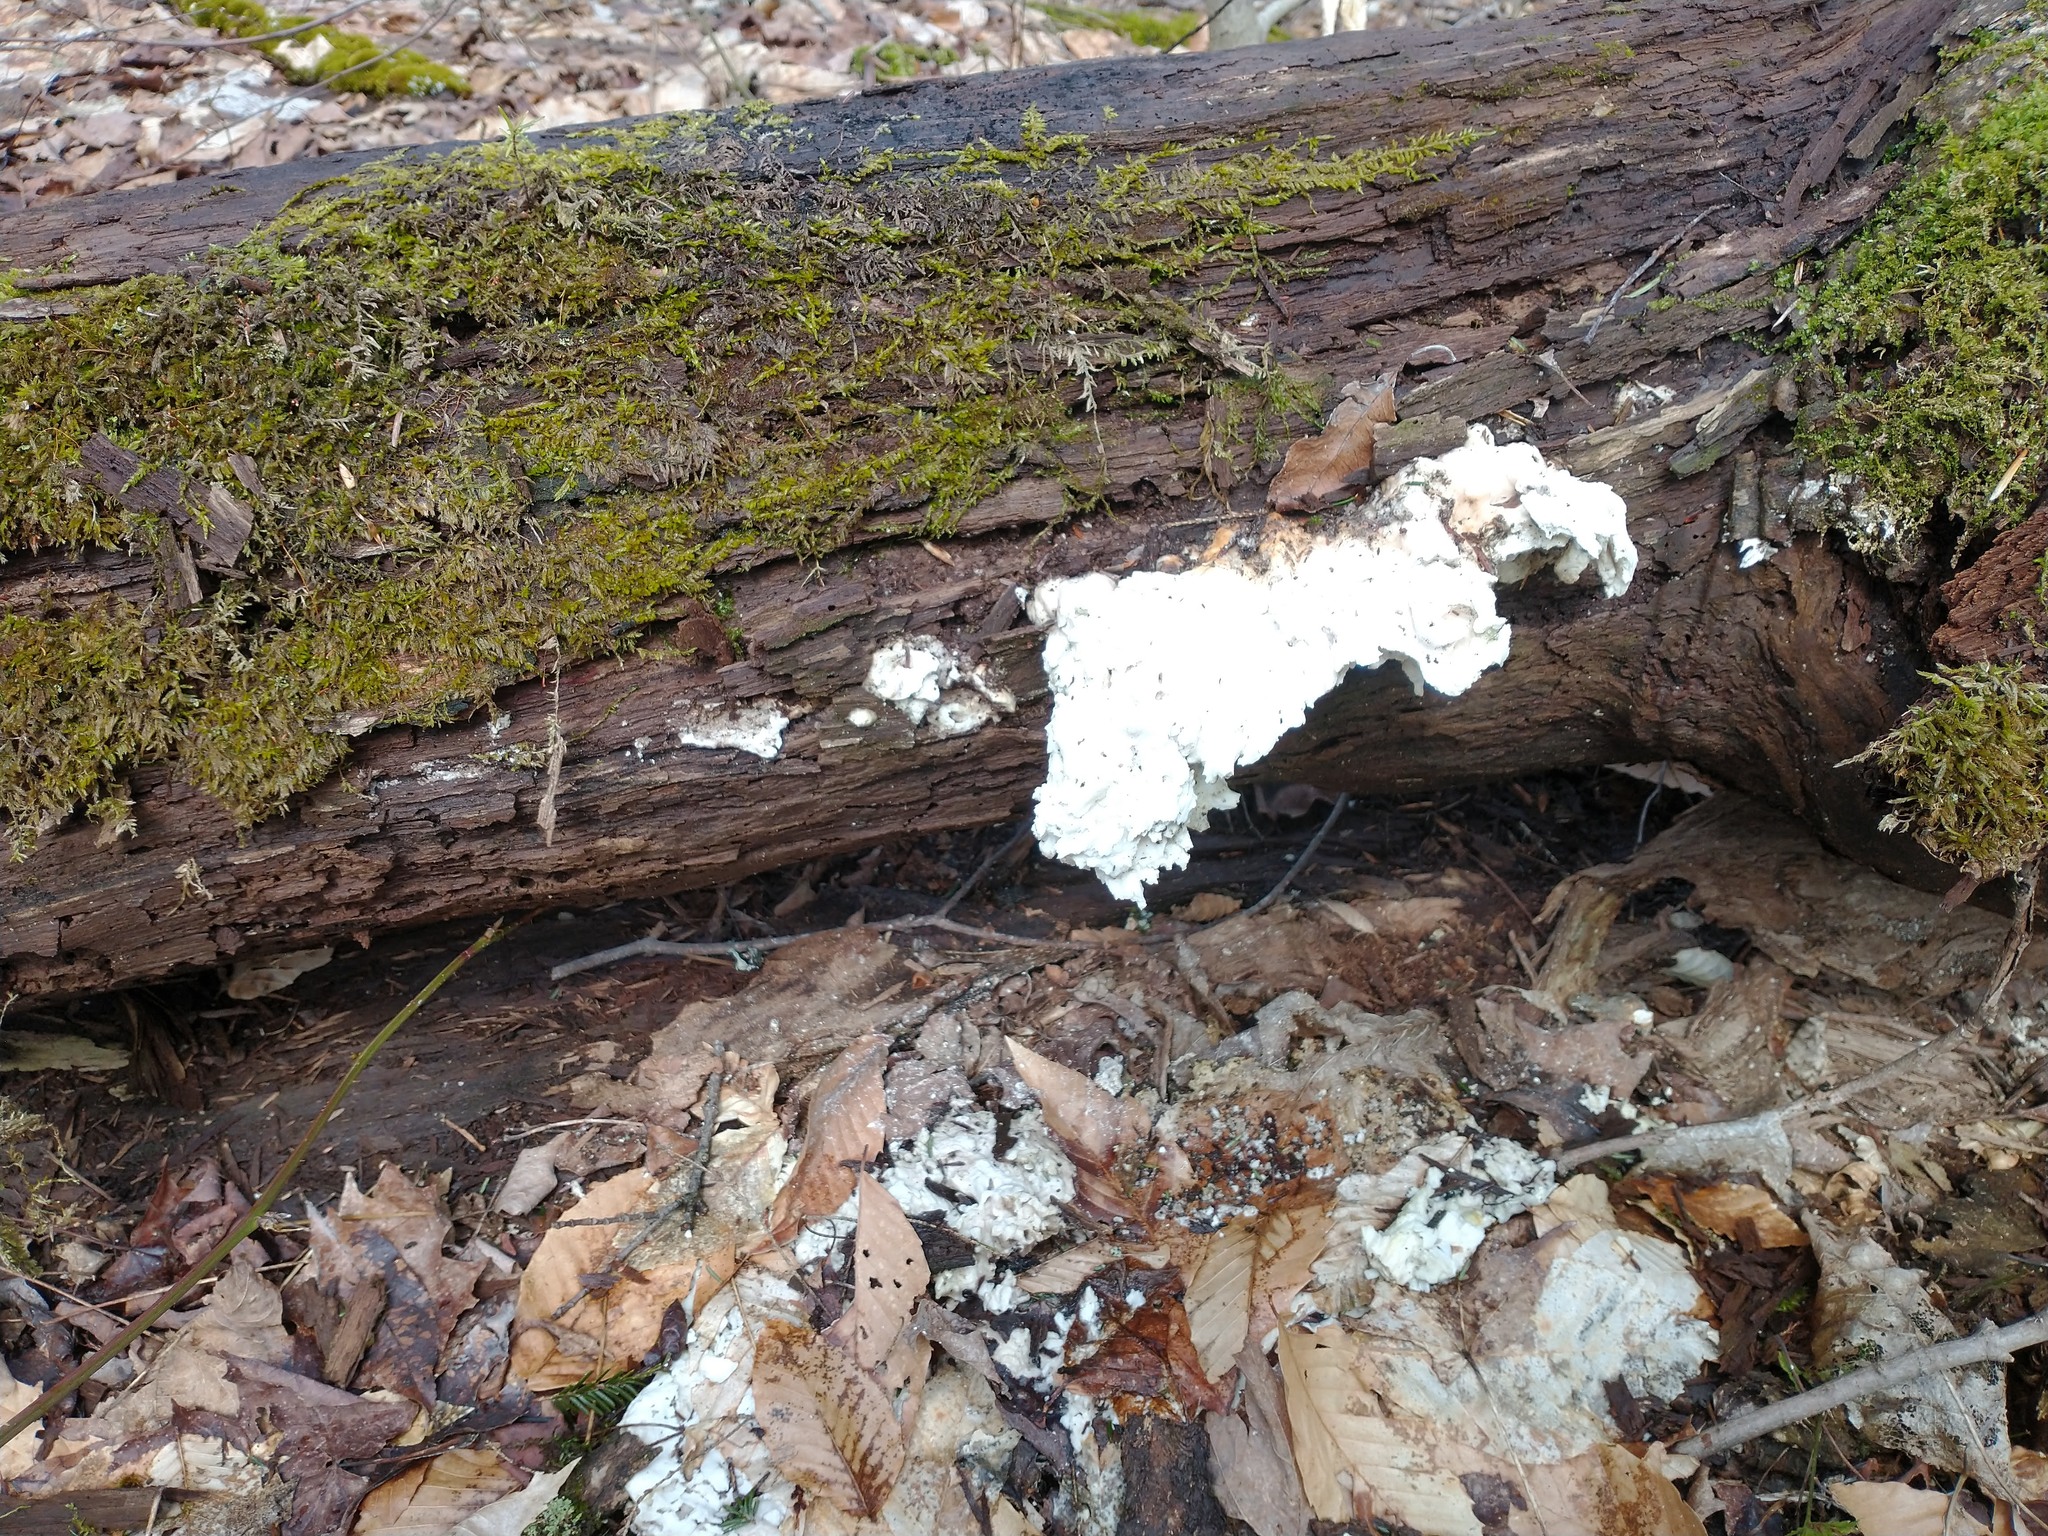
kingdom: Fungi
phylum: Basidiomycota
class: Agaricomycetes
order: Polyporales
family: Laetiporaceae
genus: Laetiporus
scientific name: Laetiporus
